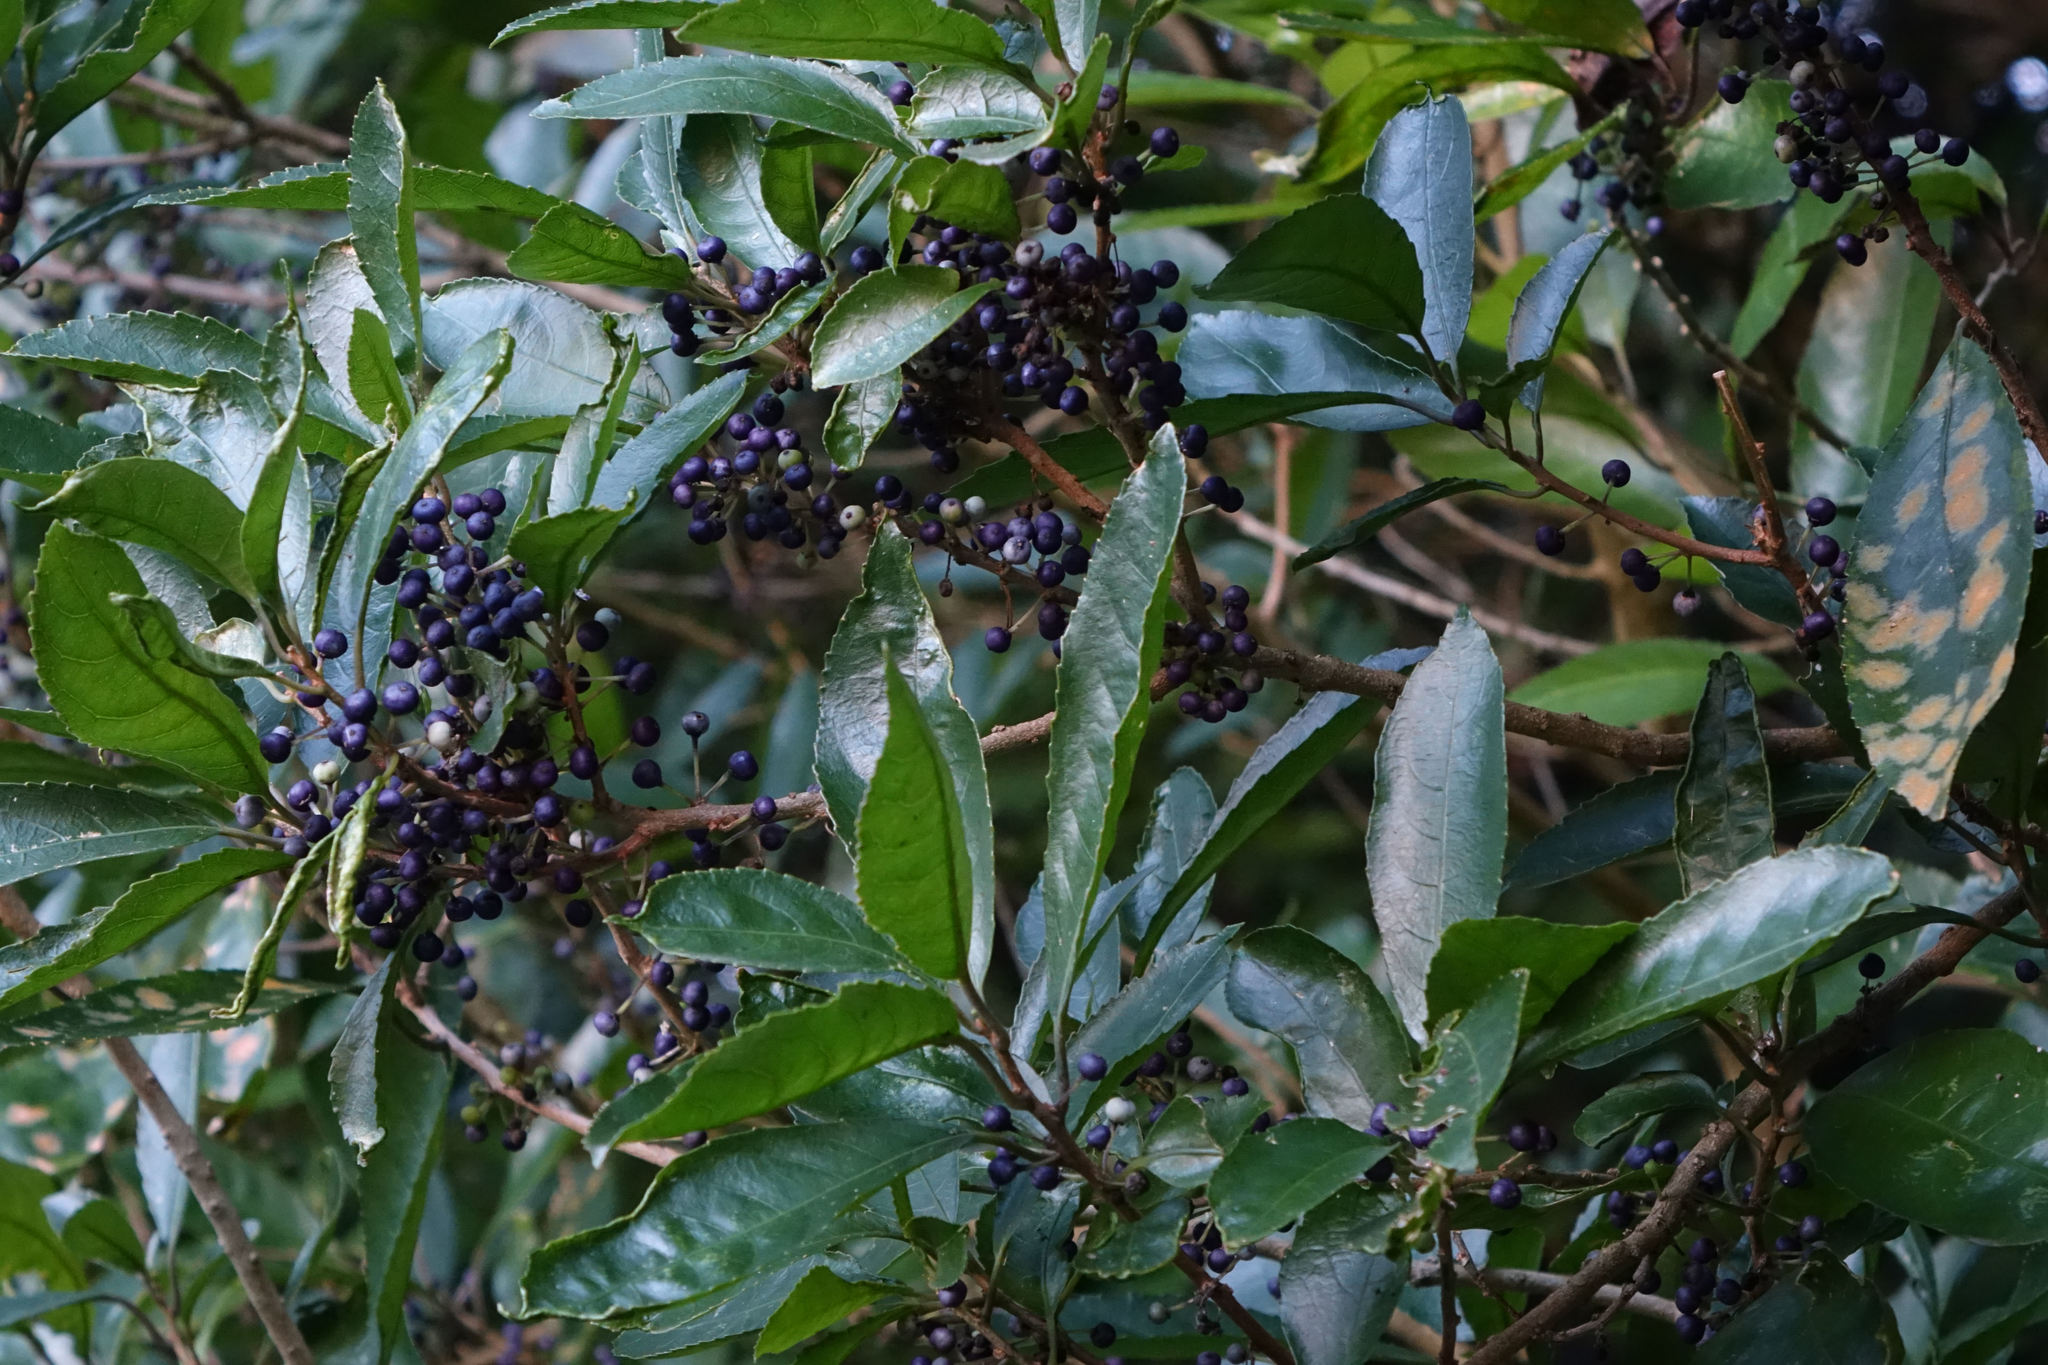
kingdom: Plantae
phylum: Tracheophyta
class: Magnoliopsida
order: Malpighiales
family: Violaceae
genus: Melicytus
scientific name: Melicytus ramiflorus
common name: Mahoe
